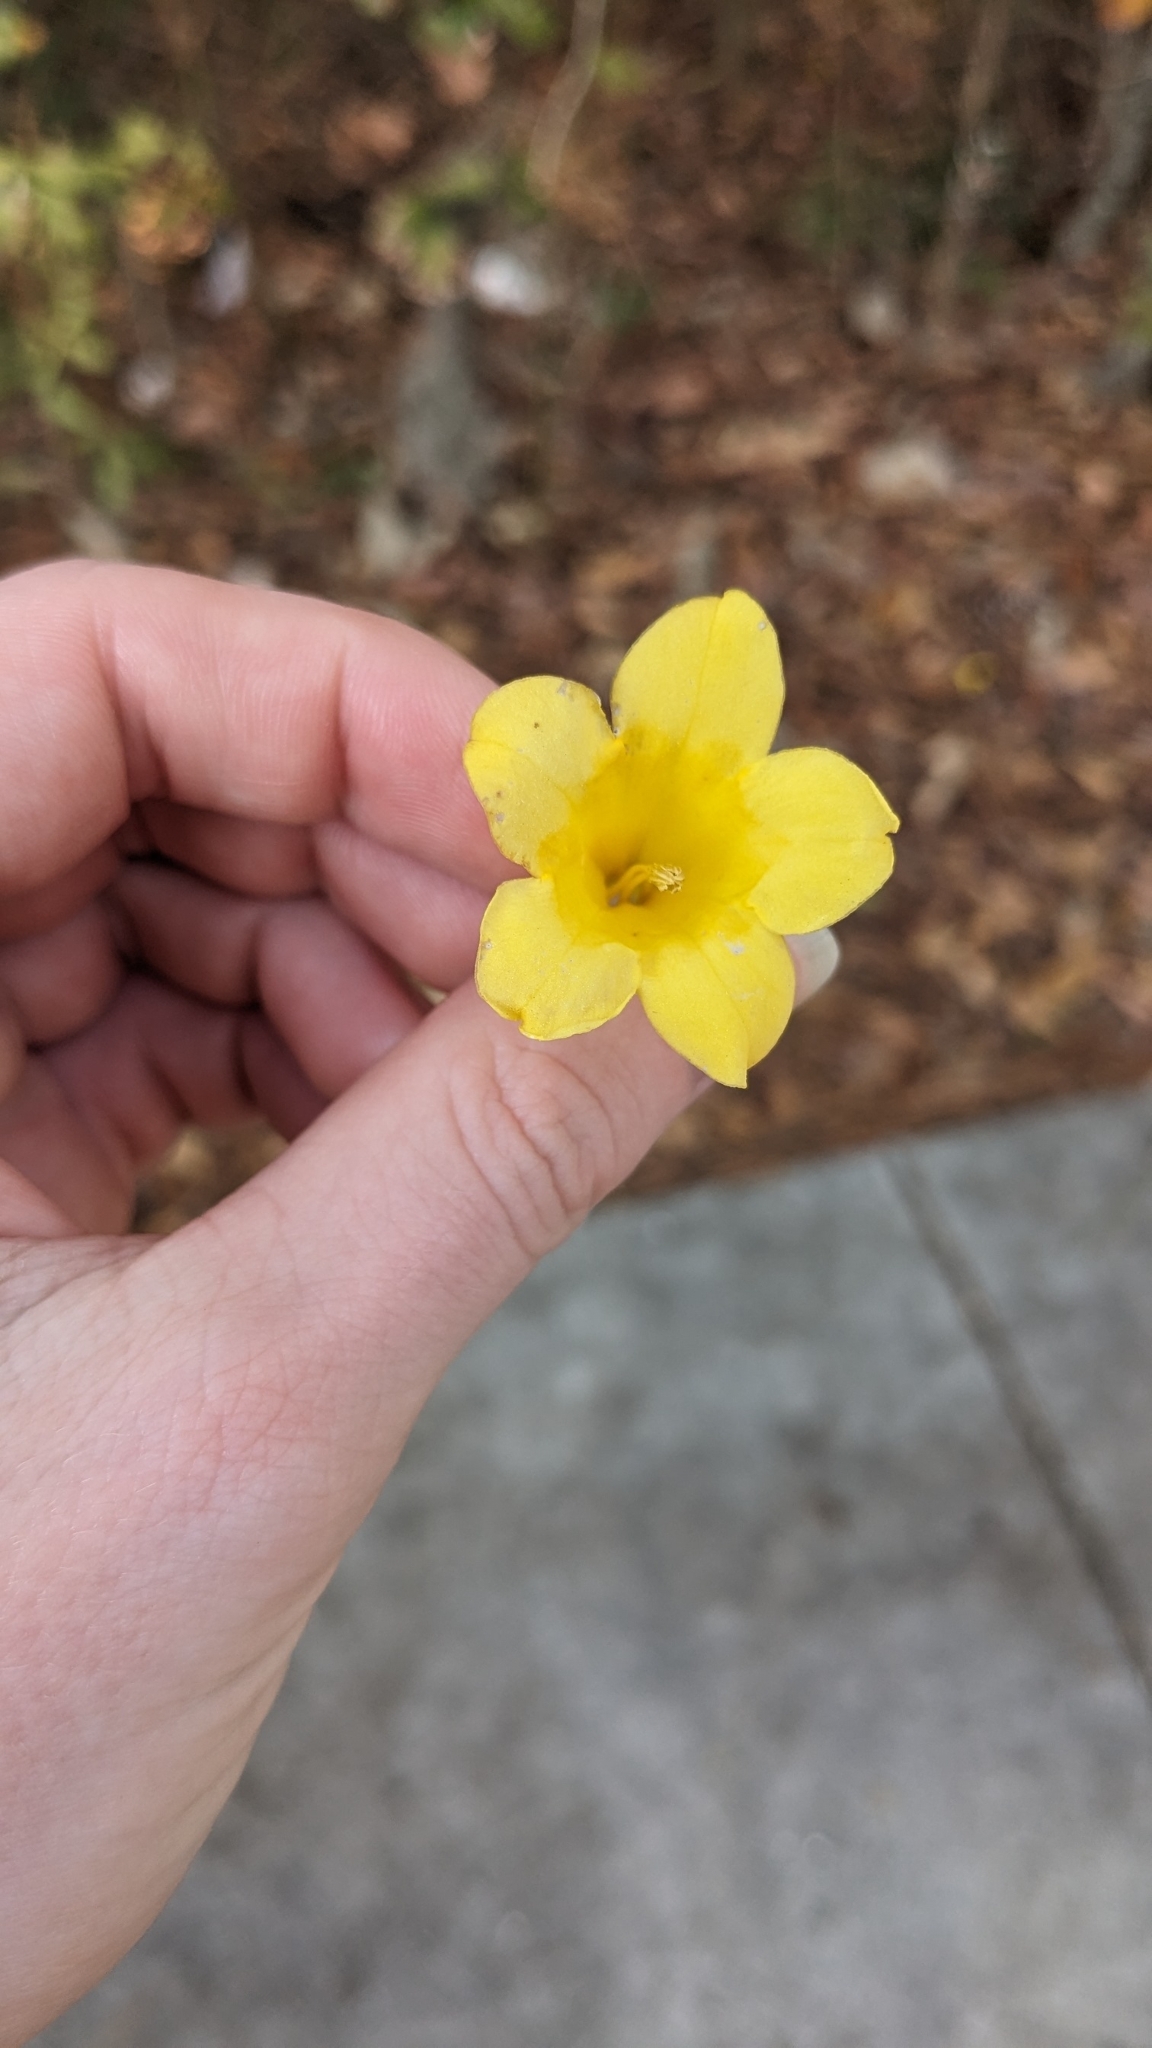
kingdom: Plantae
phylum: Tracheophyta
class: Magnoliopsida
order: Gentianales
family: Gelsemiaceae
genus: Gelsemium
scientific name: Gelsemium sempervirens
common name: Carolina-jasmine
